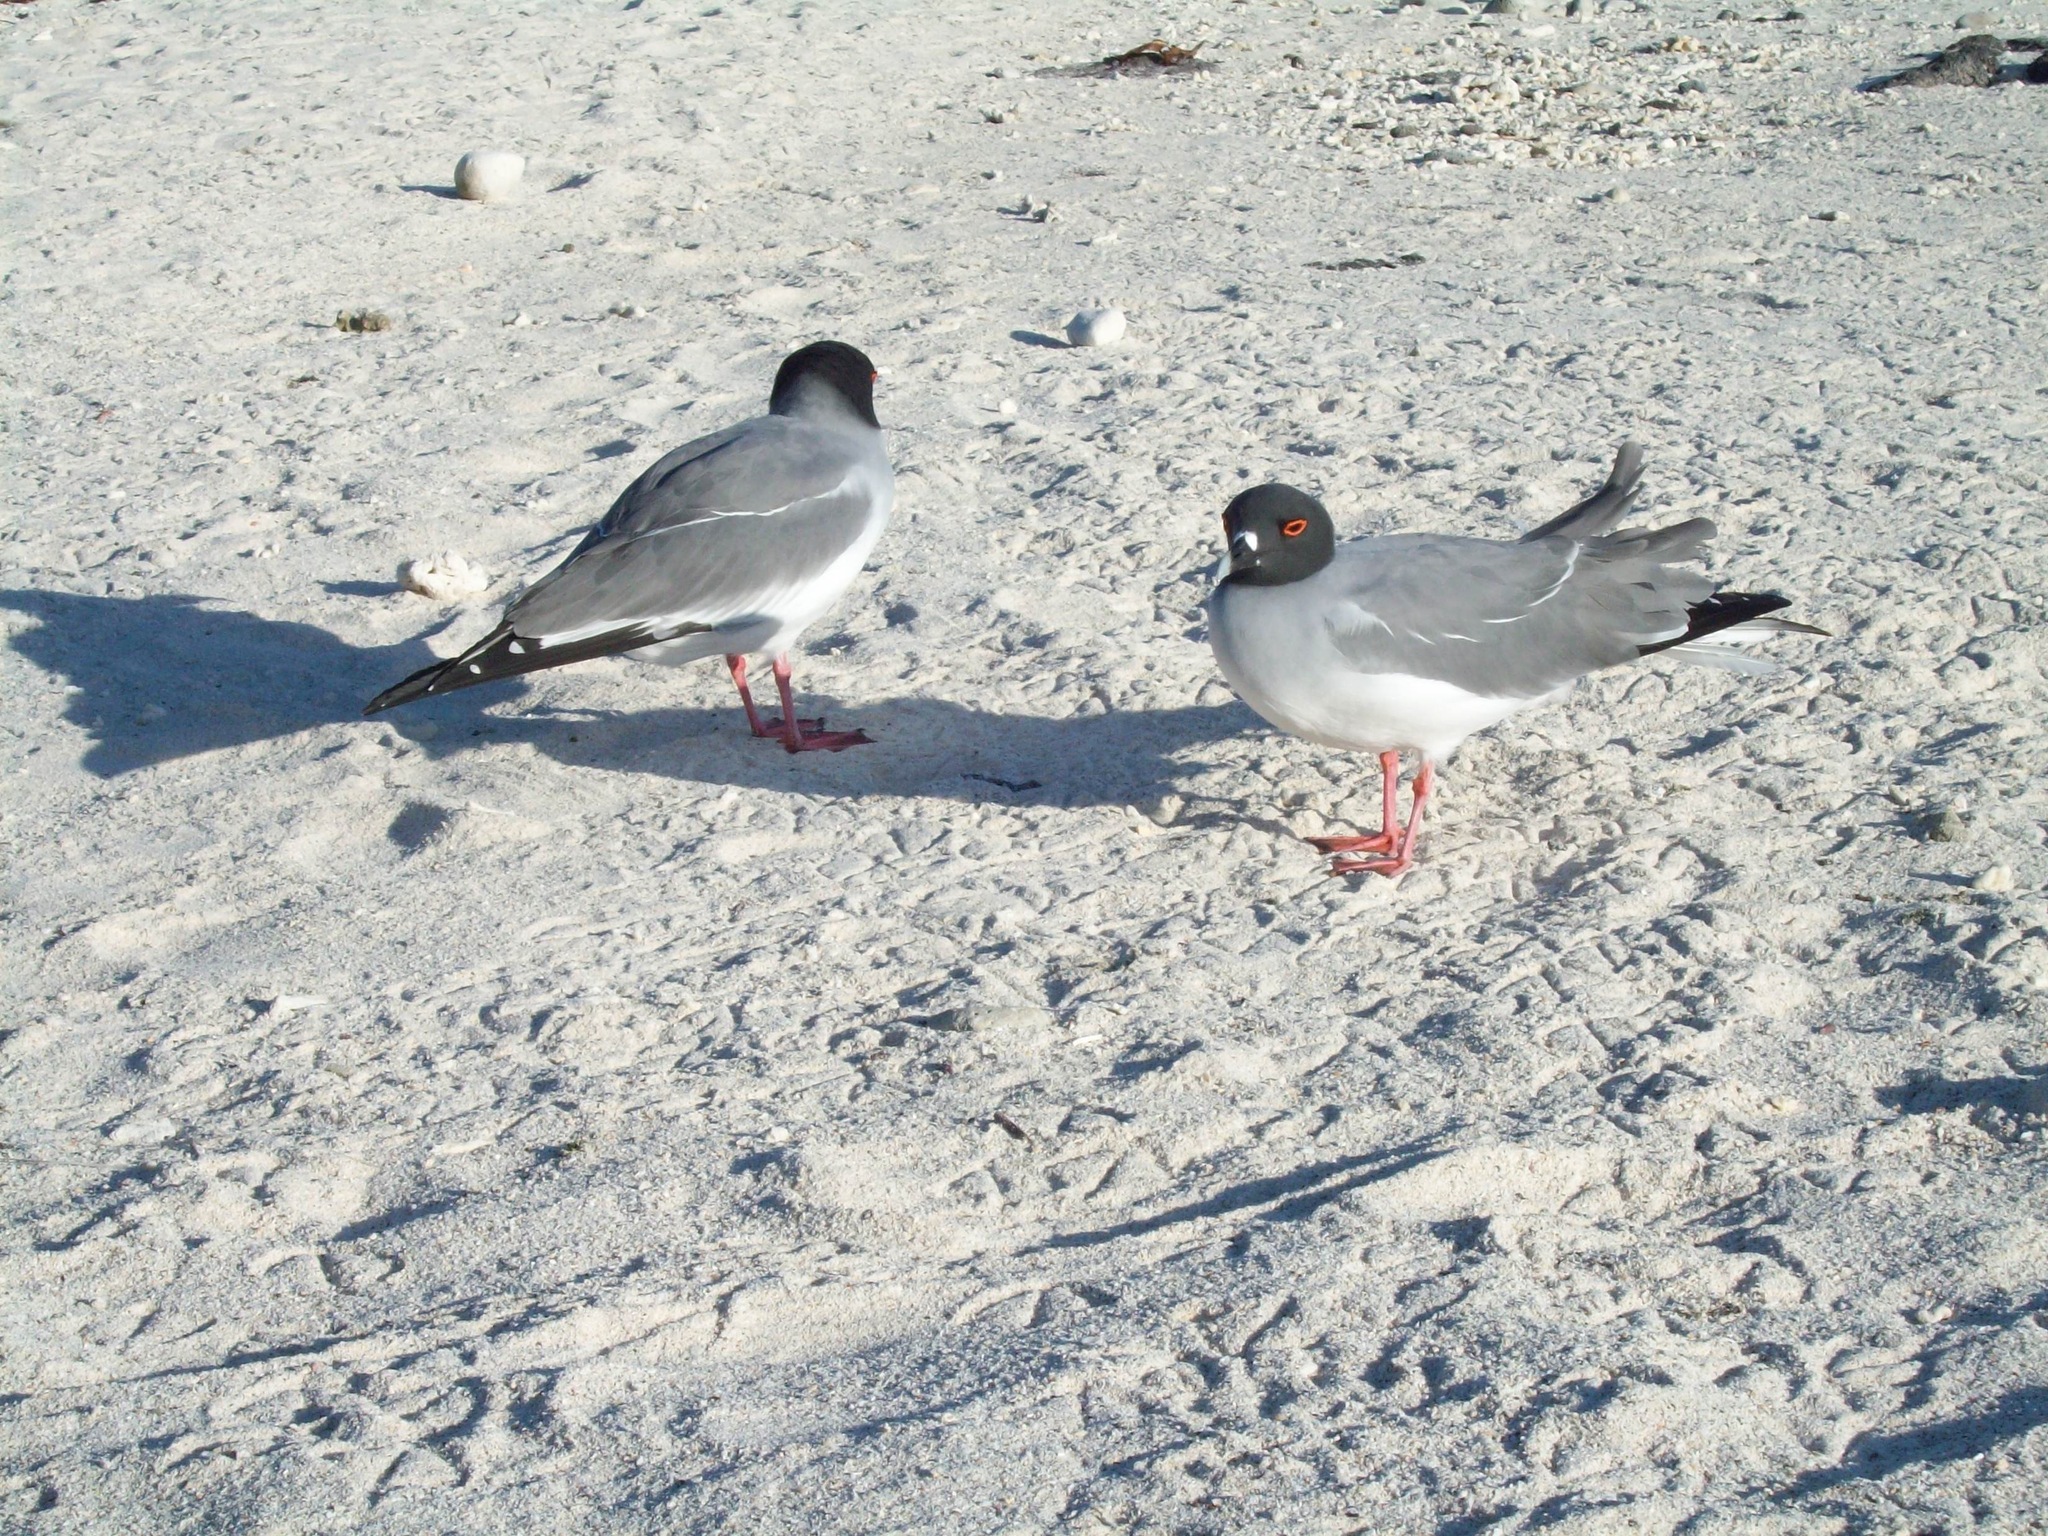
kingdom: Animalia
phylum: Chordata
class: Aves
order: Charadriiformes
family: Laridae
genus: Creagrus
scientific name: Creagrus furcatus
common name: Swallow-tailed gull
